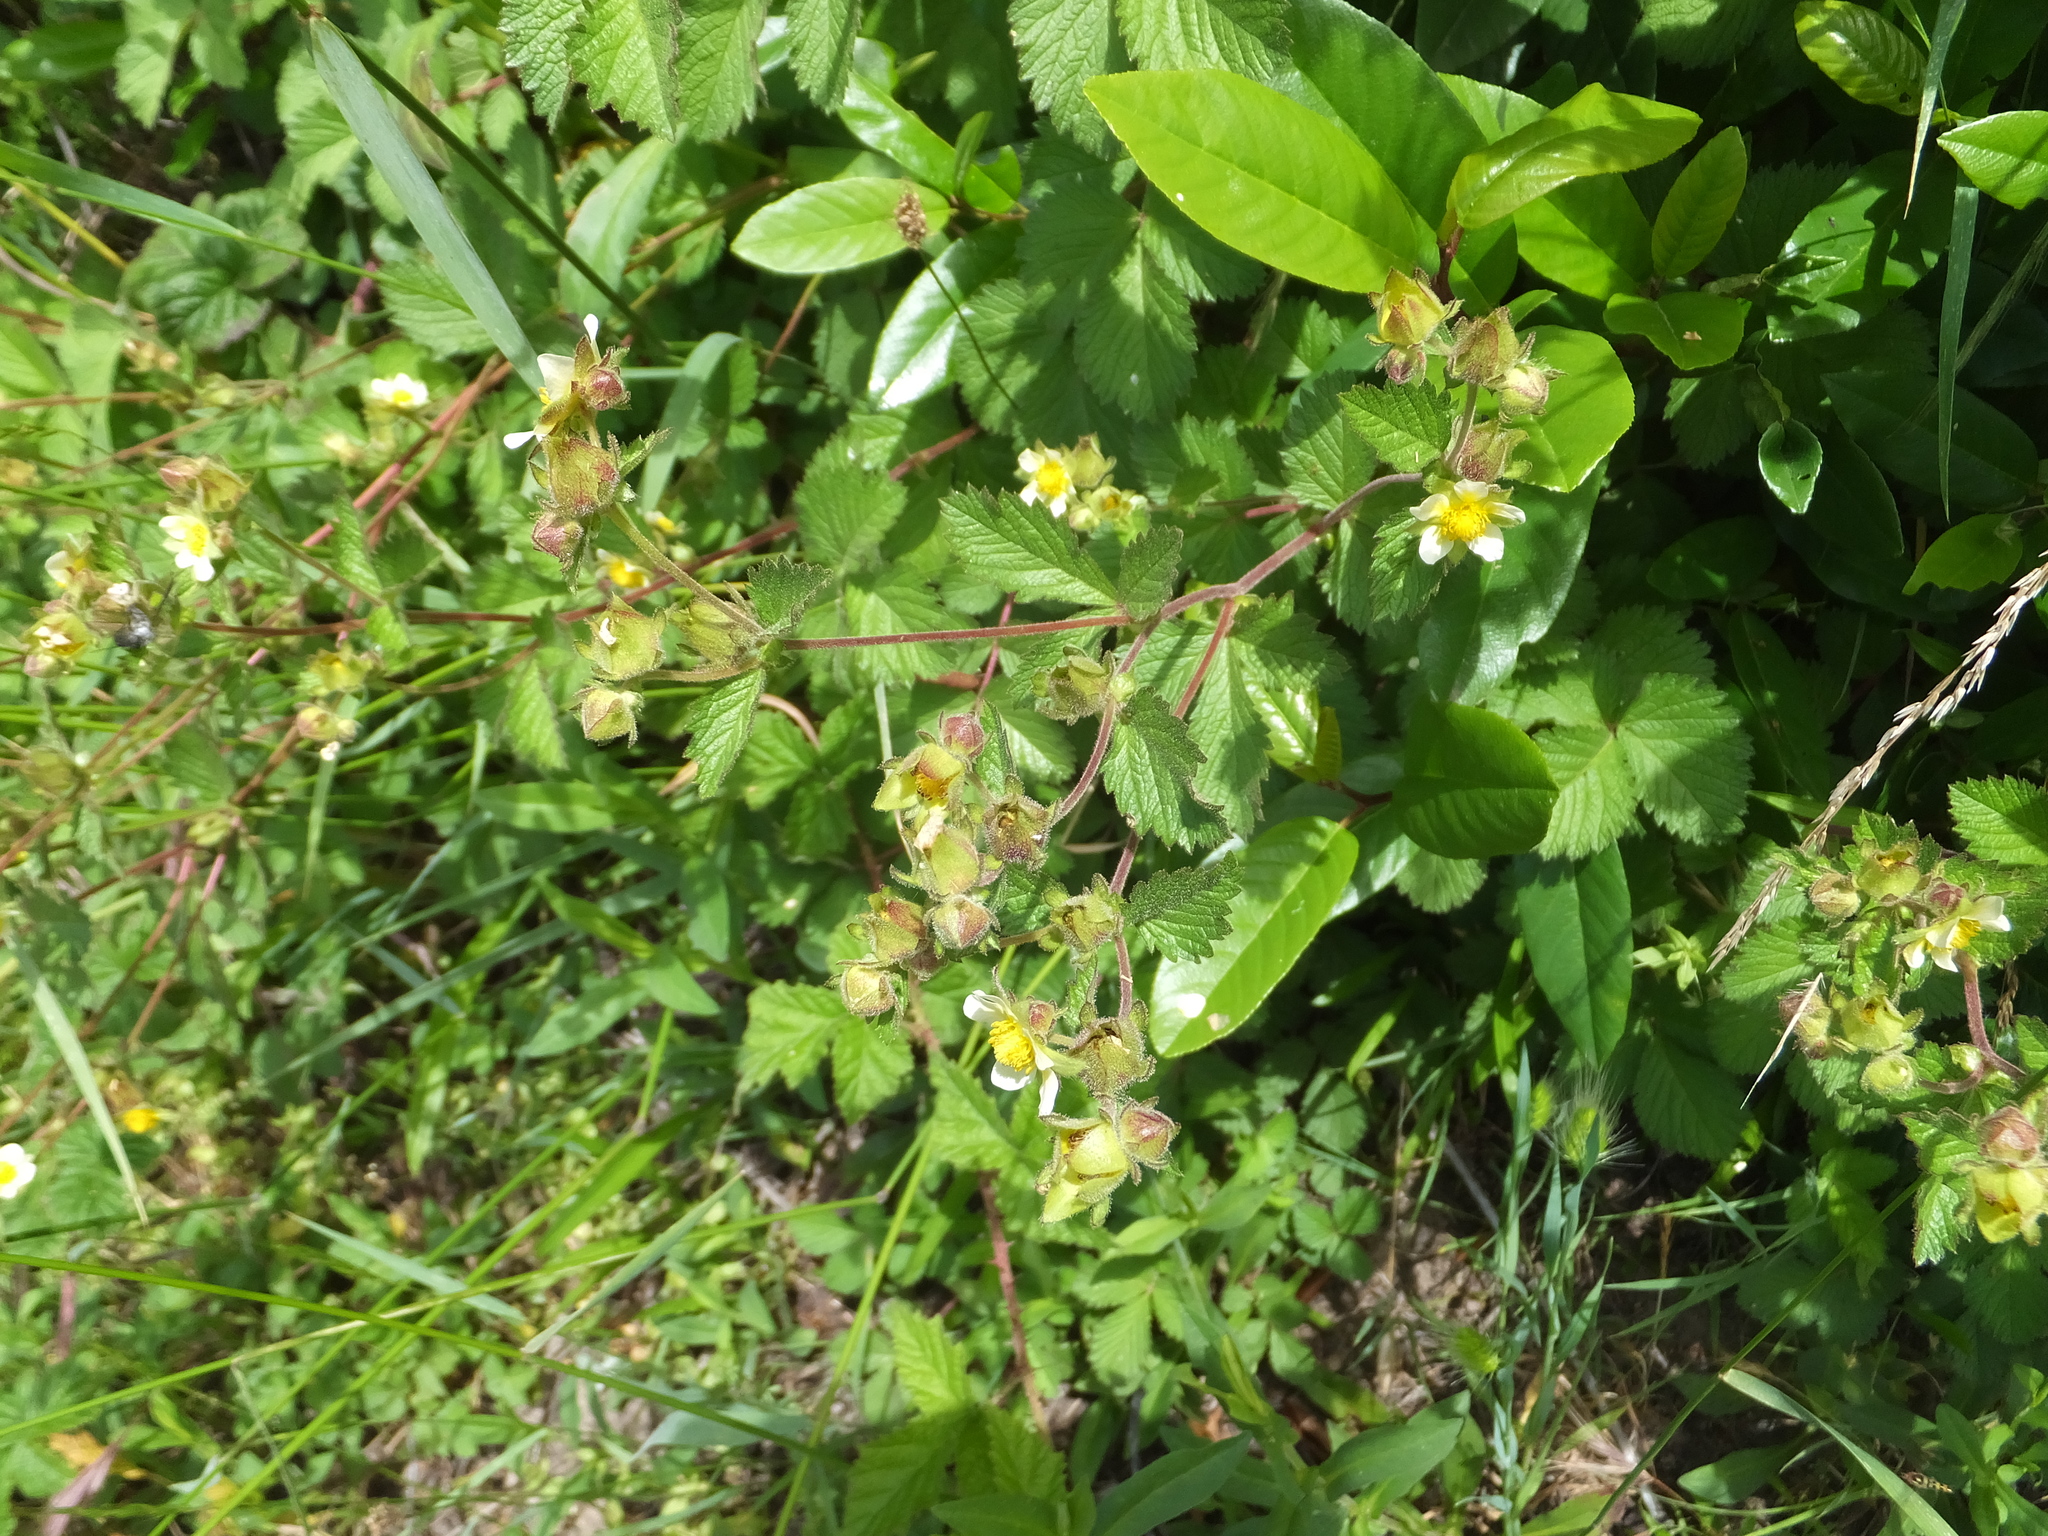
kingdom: Plantae
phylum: Tracheophyta
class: Magnoliopsida
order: Rosales
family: Rosaceae
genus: Drymocallis
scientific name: Drymocallis glandulosa
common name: Sticky cinquefoil
